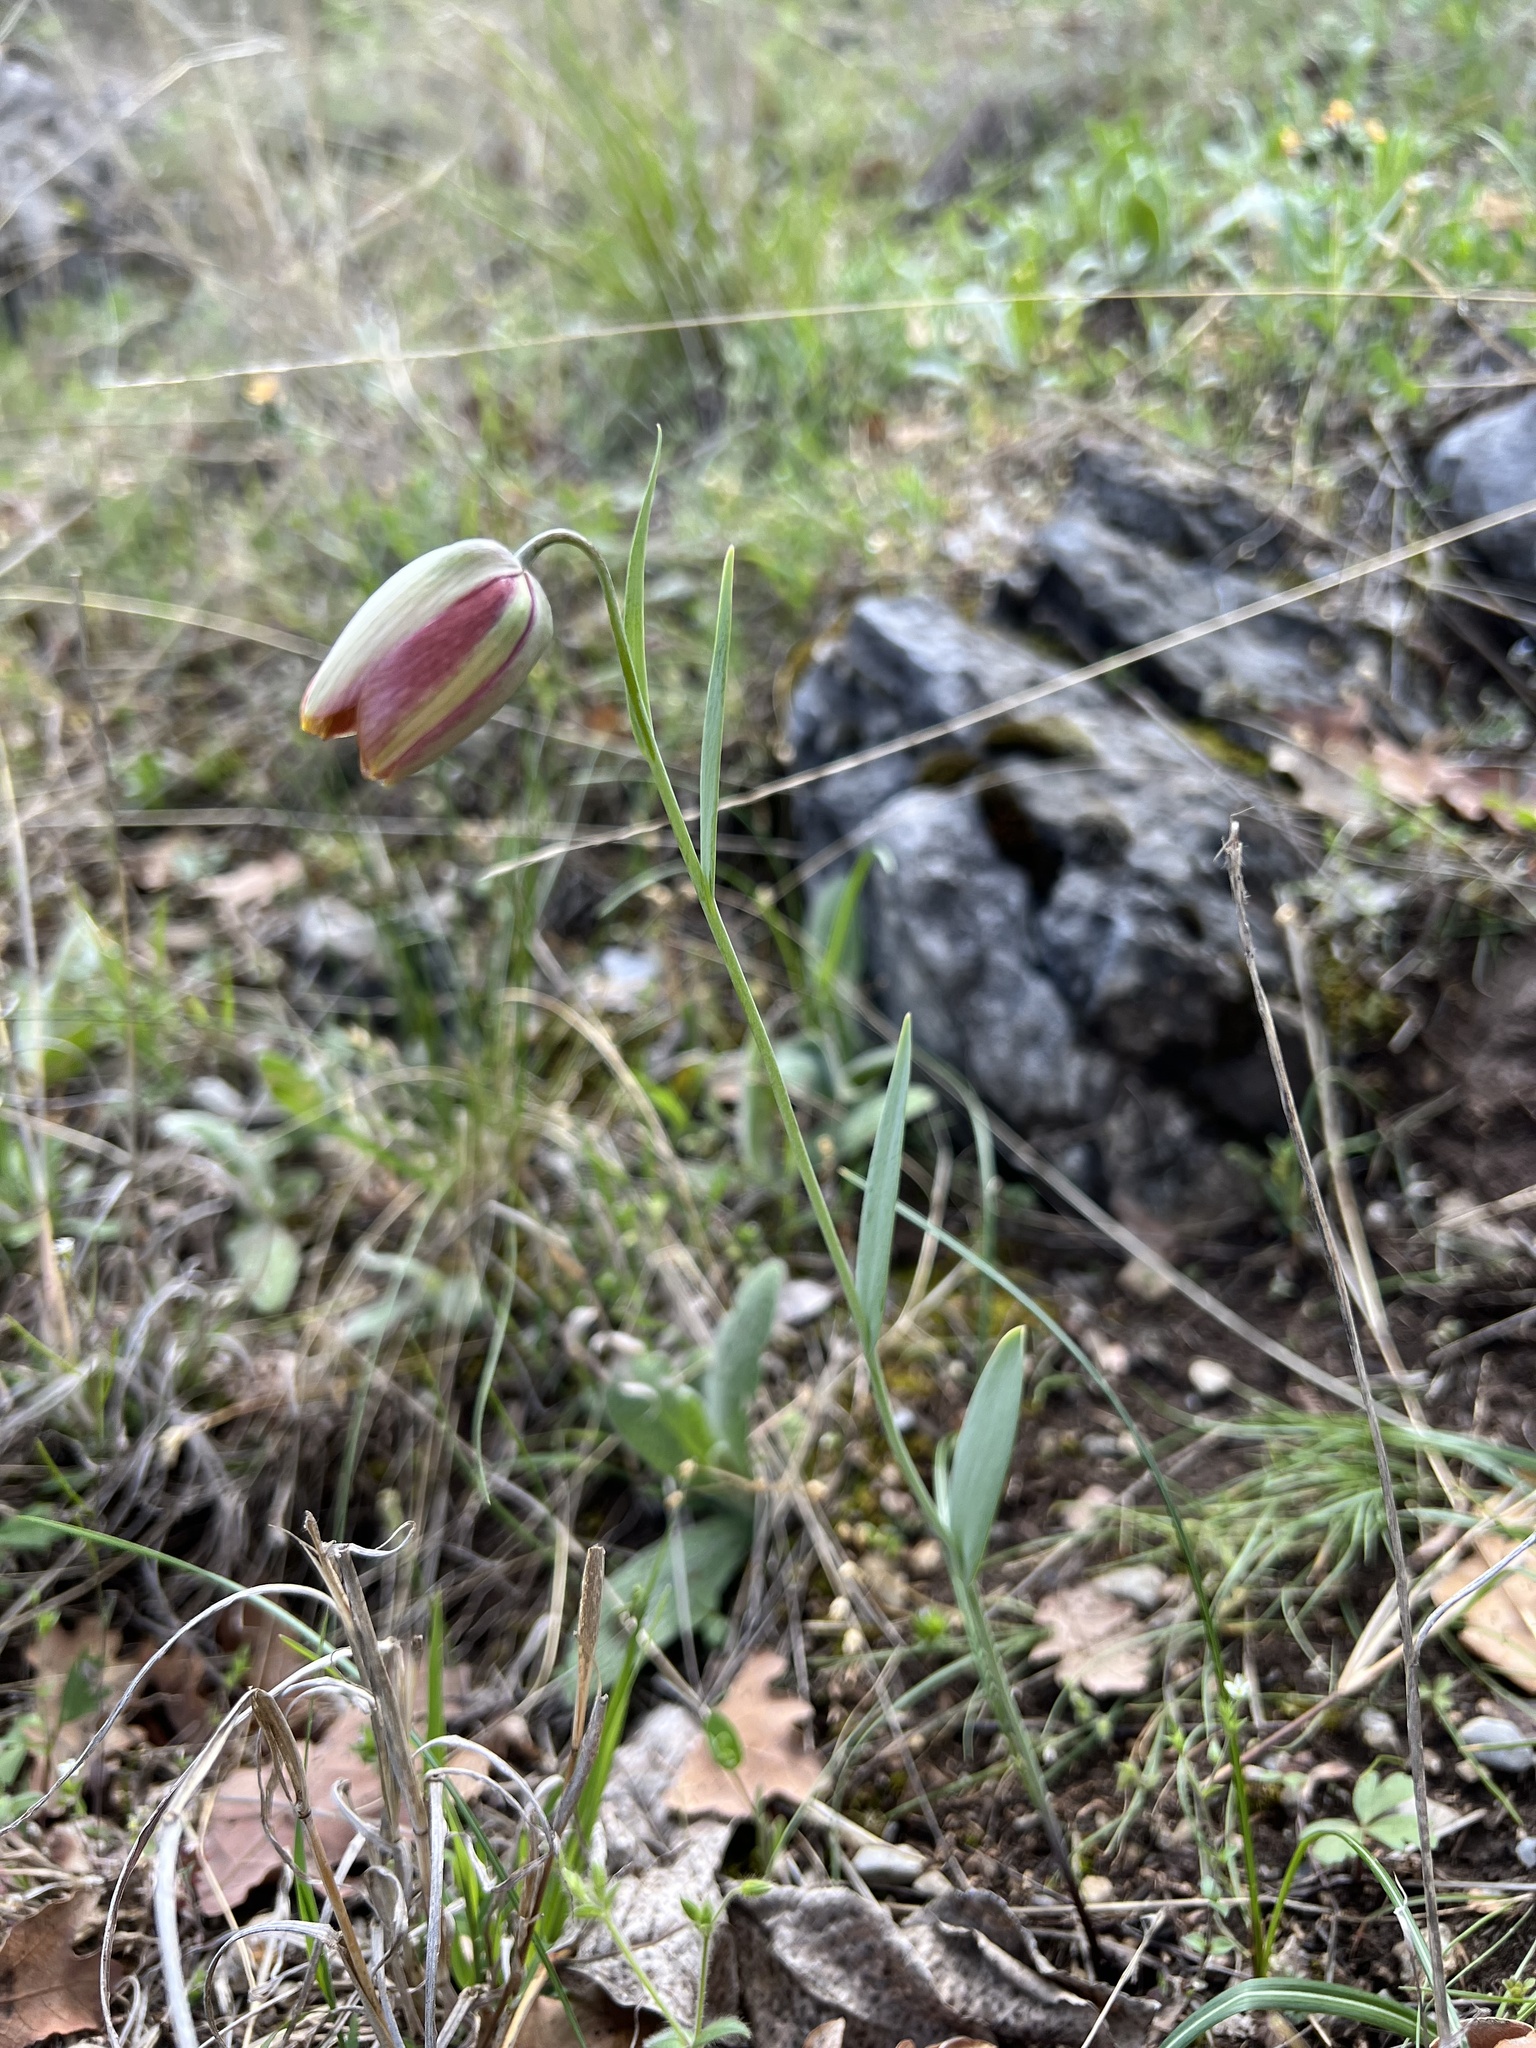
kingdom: Plantae
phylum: Tracheophyta
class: Liliopsida
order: Liliales
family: Liliaceae
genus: Fritillaria
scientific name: Fritillaria gussichiae
